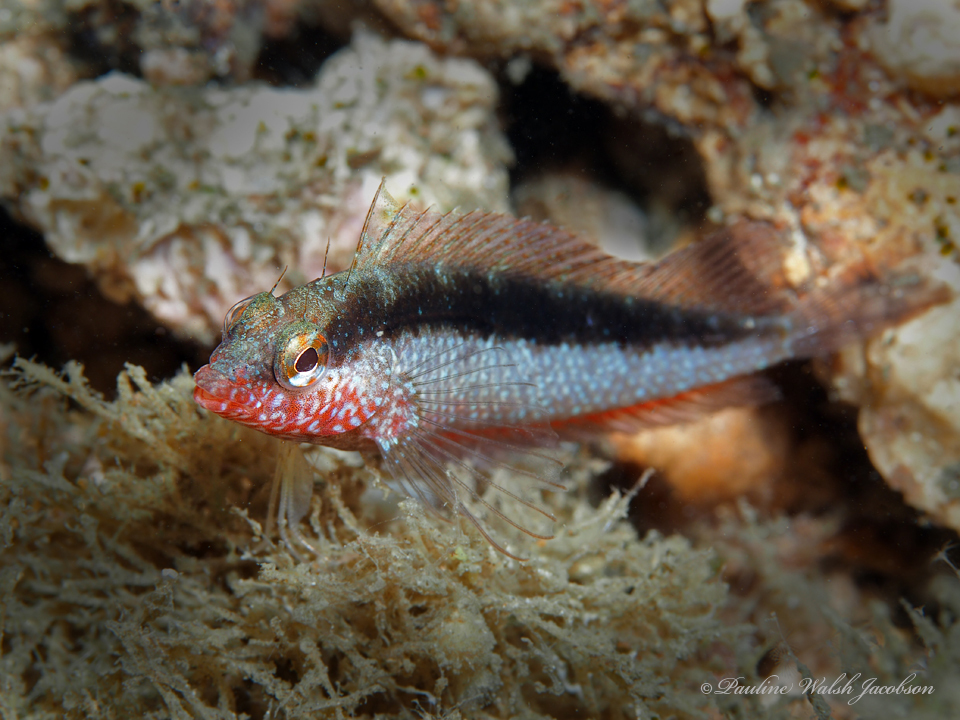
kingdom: Animalia
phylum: Chordata
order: Perciformes
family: Labrisomidae
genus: Malacoctenus
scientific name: Malacoctenus macropus
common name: Rosy blenny
